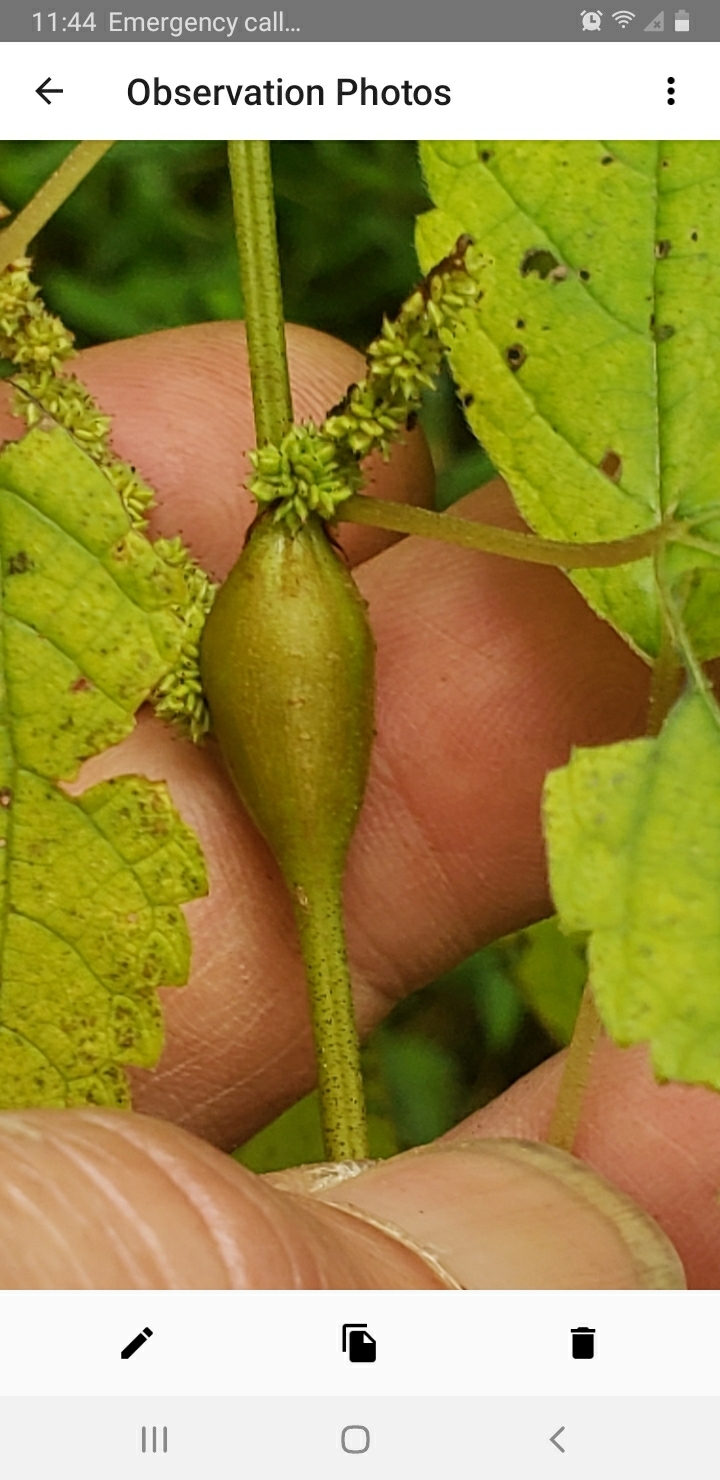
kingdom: Animalia
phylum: Arthropoda
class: Insecta
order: Diptera
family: Cecidomyiidae
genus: Neolasioptera
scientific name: Neolasioptera boehmeriae
